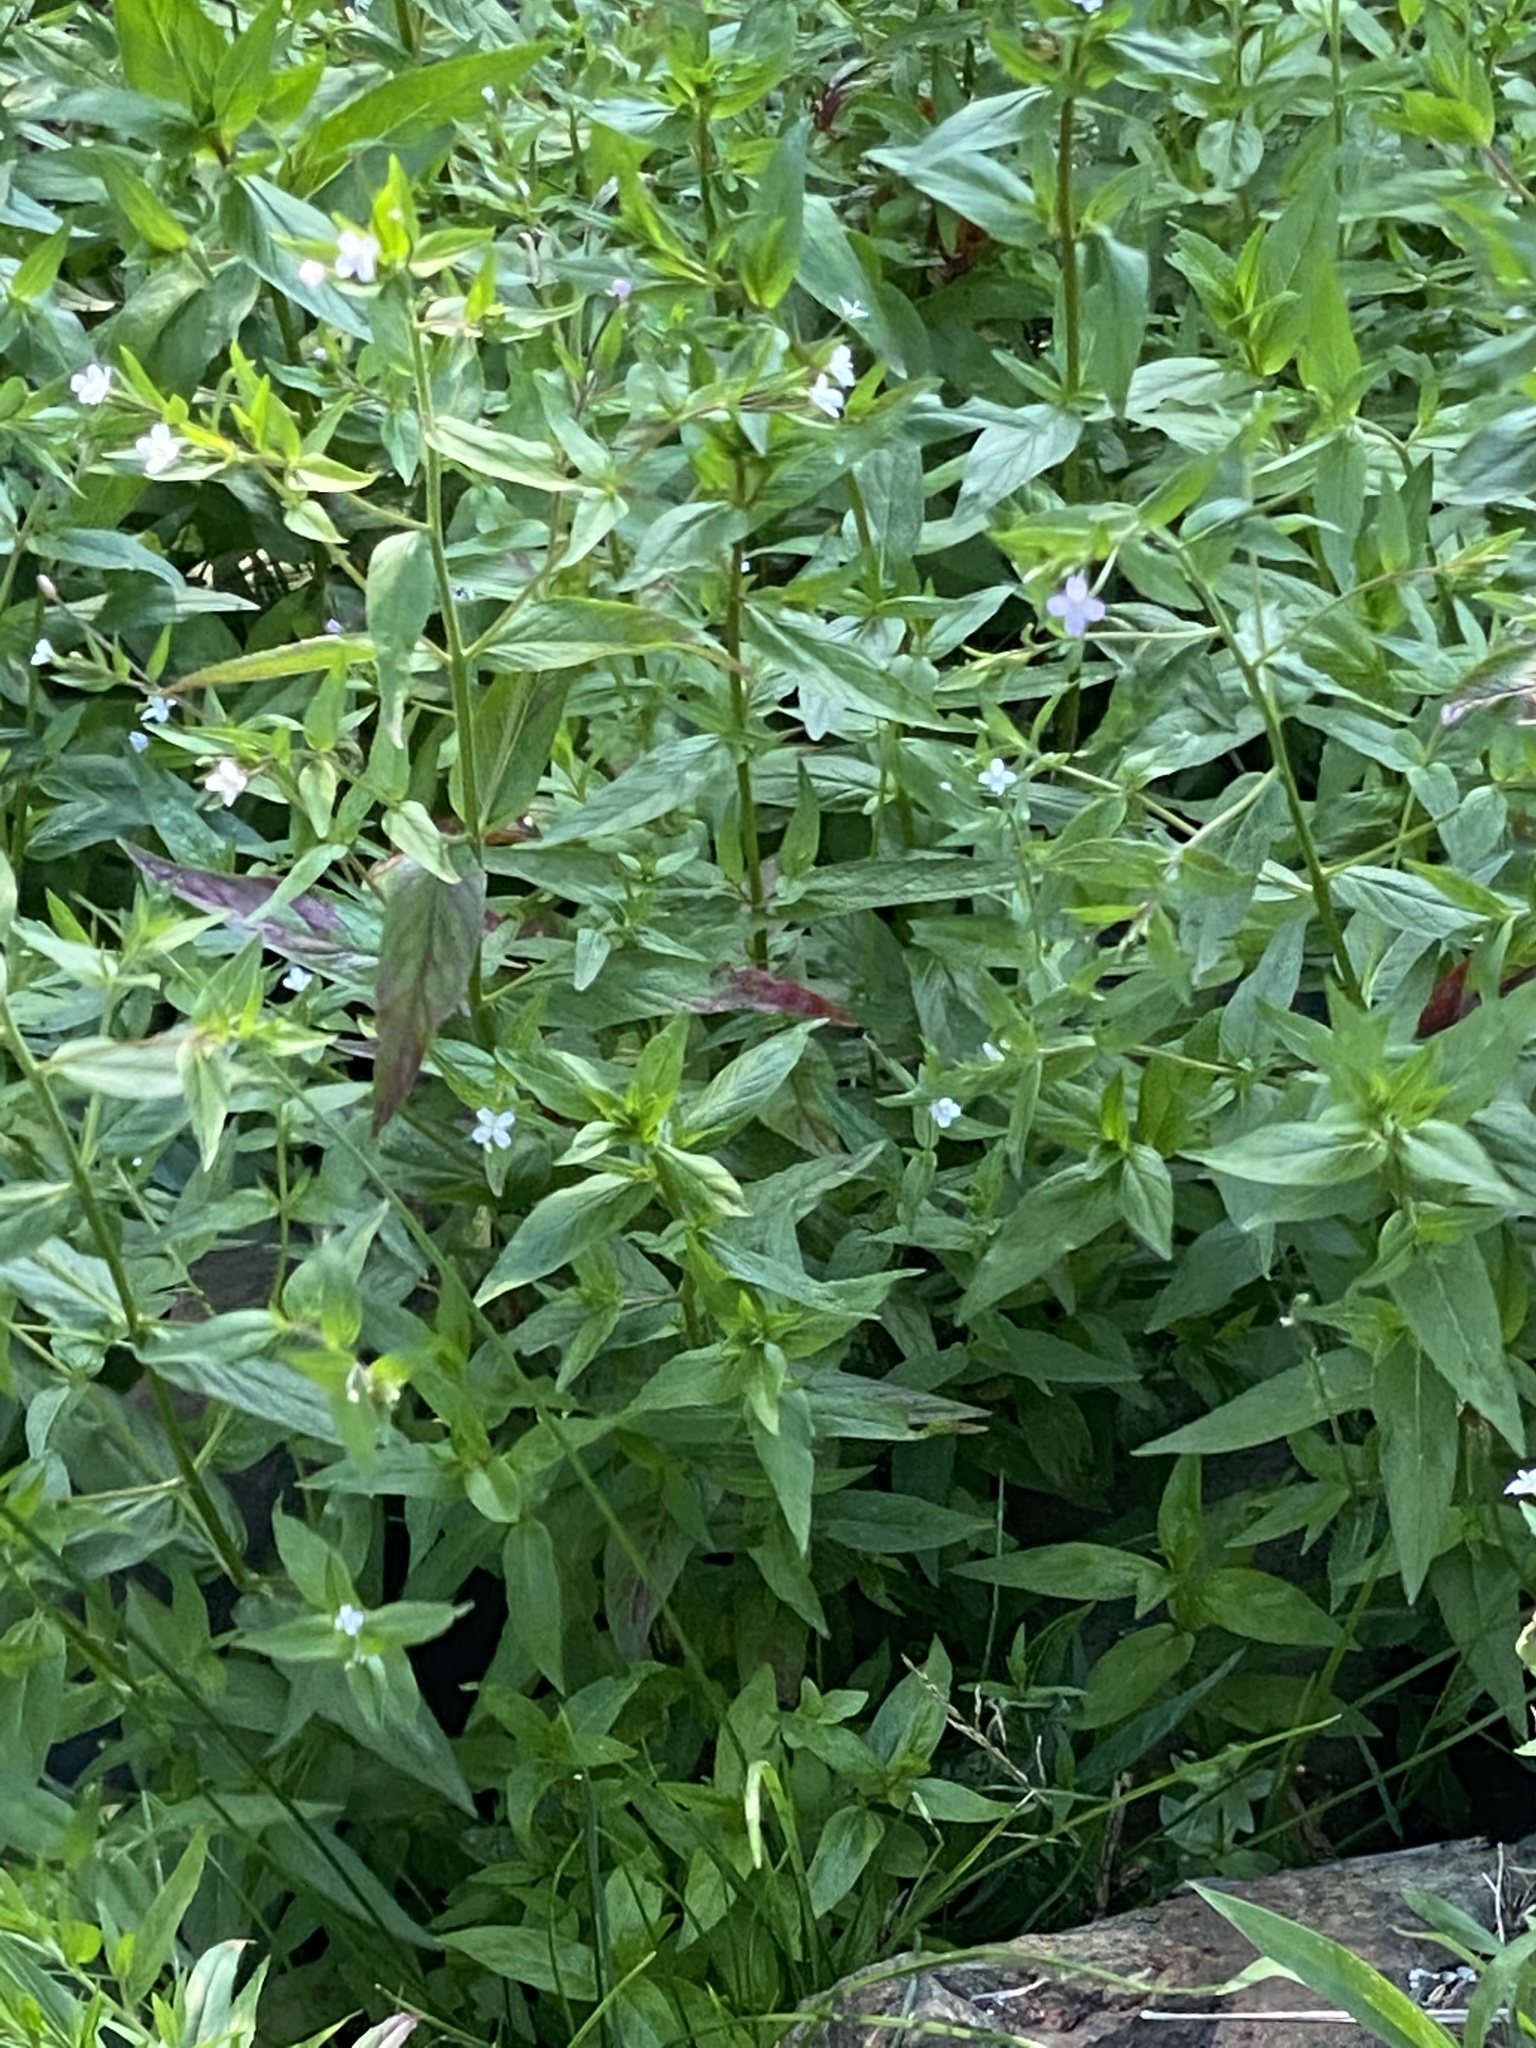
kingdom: Plantae
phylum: Tracheophyta
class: Magnoliopsida
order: Myrtales
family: Onagraceae
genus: Epilobium
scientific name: Epilobium ciliatum
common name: American willowherb
